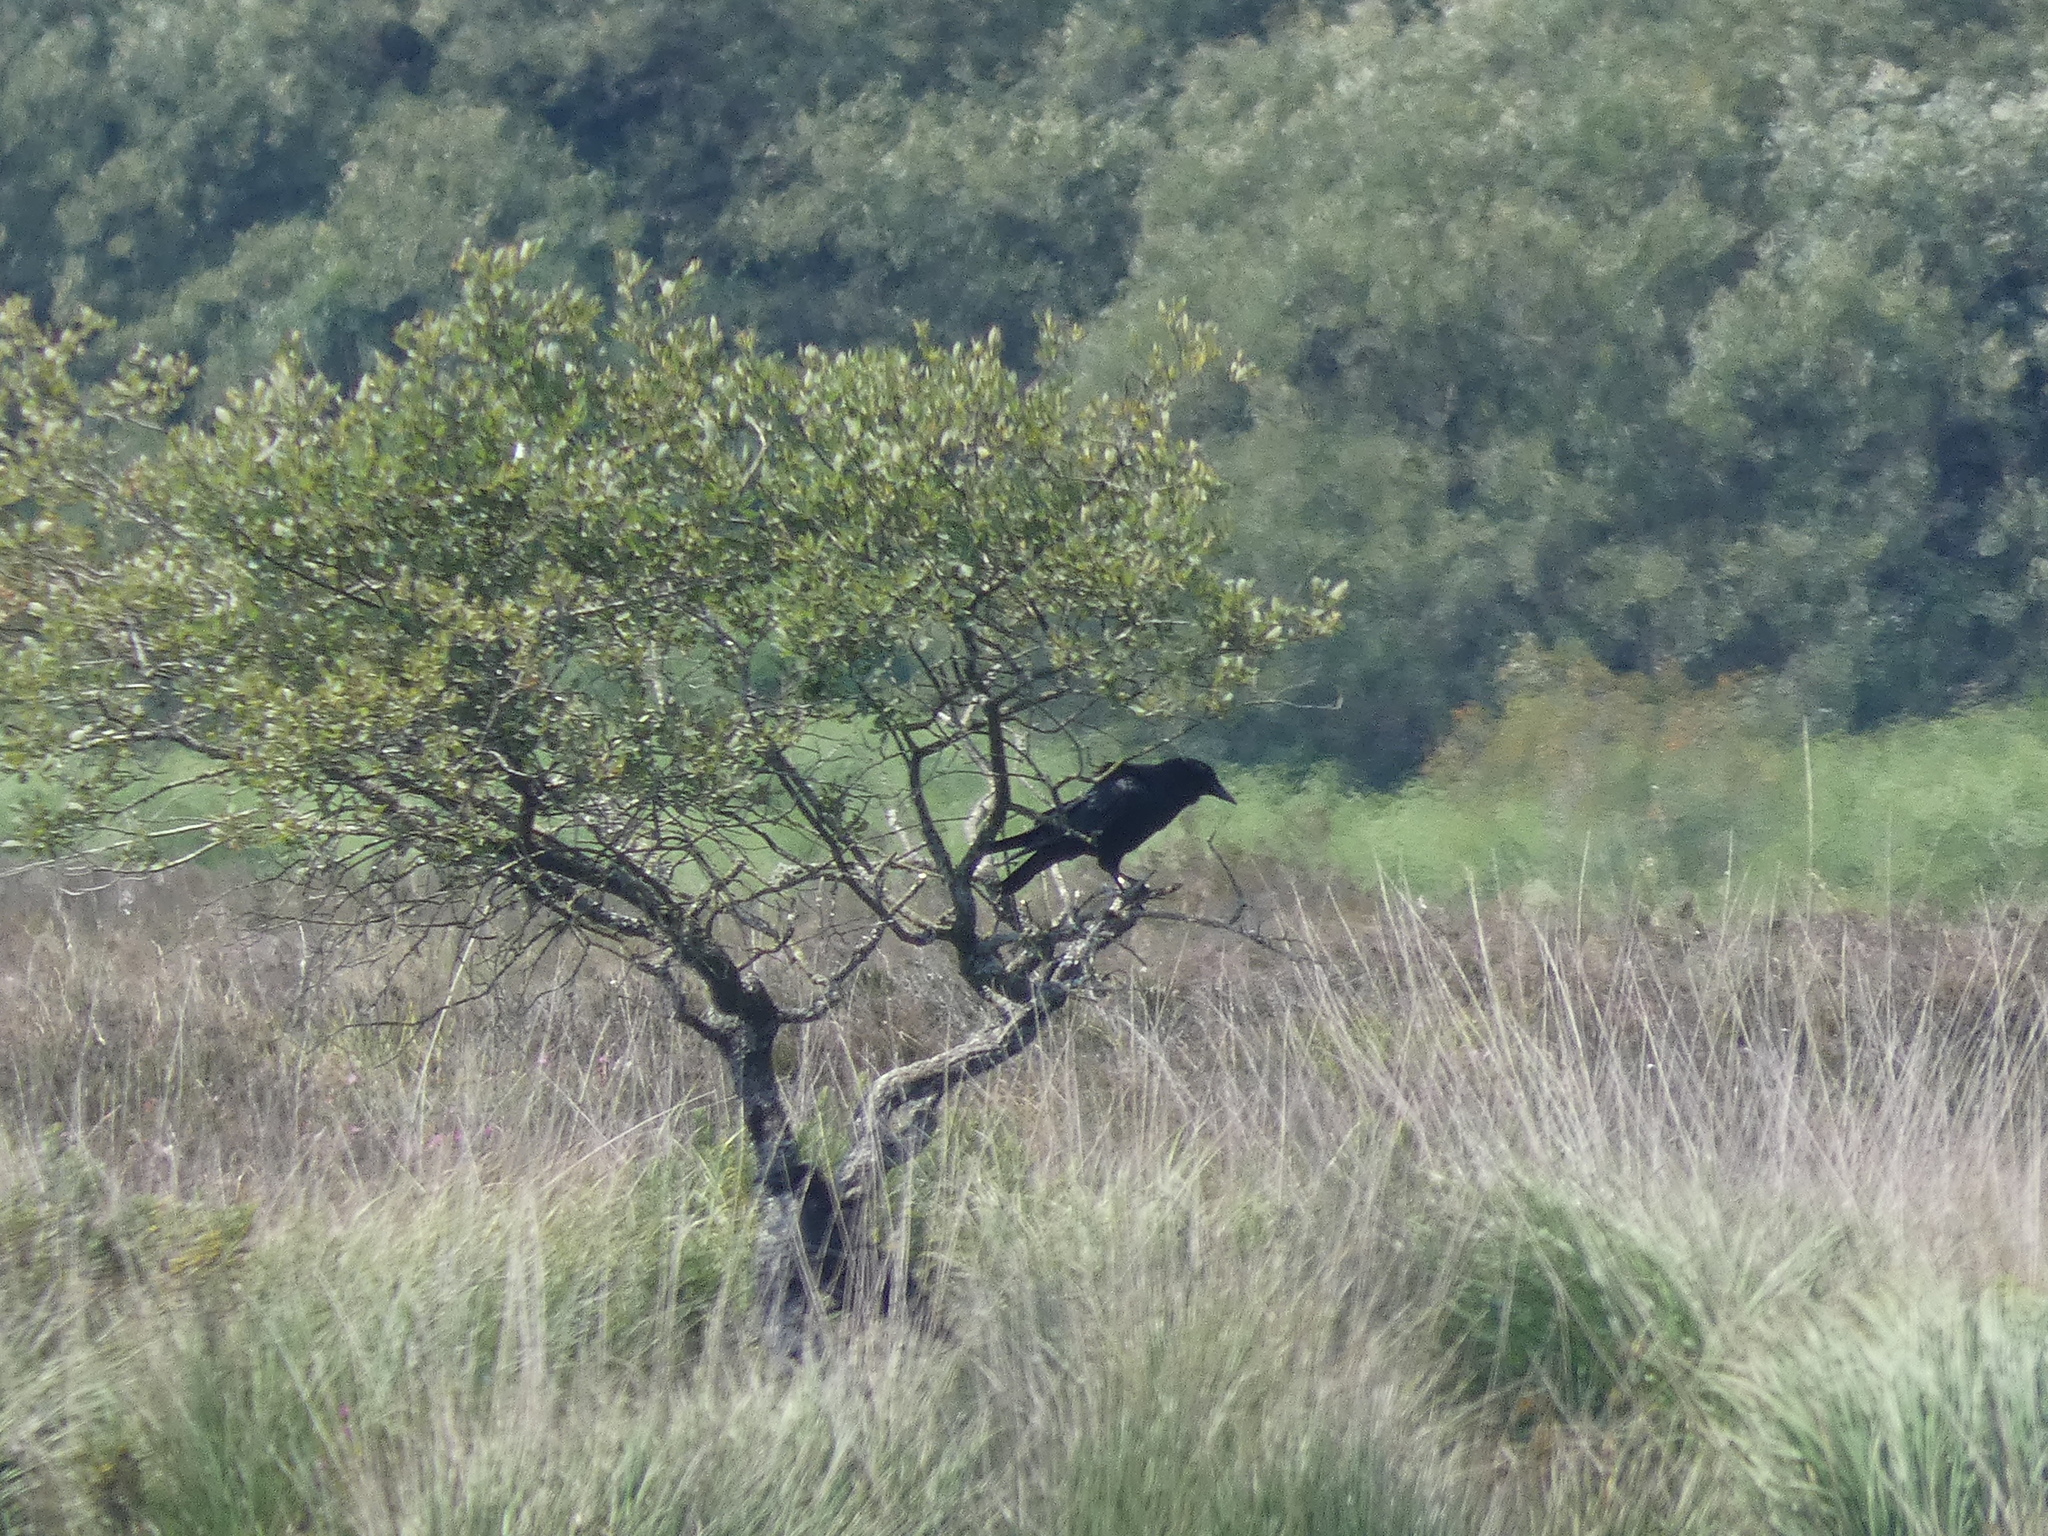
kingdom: Animalia
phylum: Chordata
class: Aves
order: Passeriformes
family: Corvidae
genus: Corvus
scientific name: Corvus corone
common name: Carrion crow
